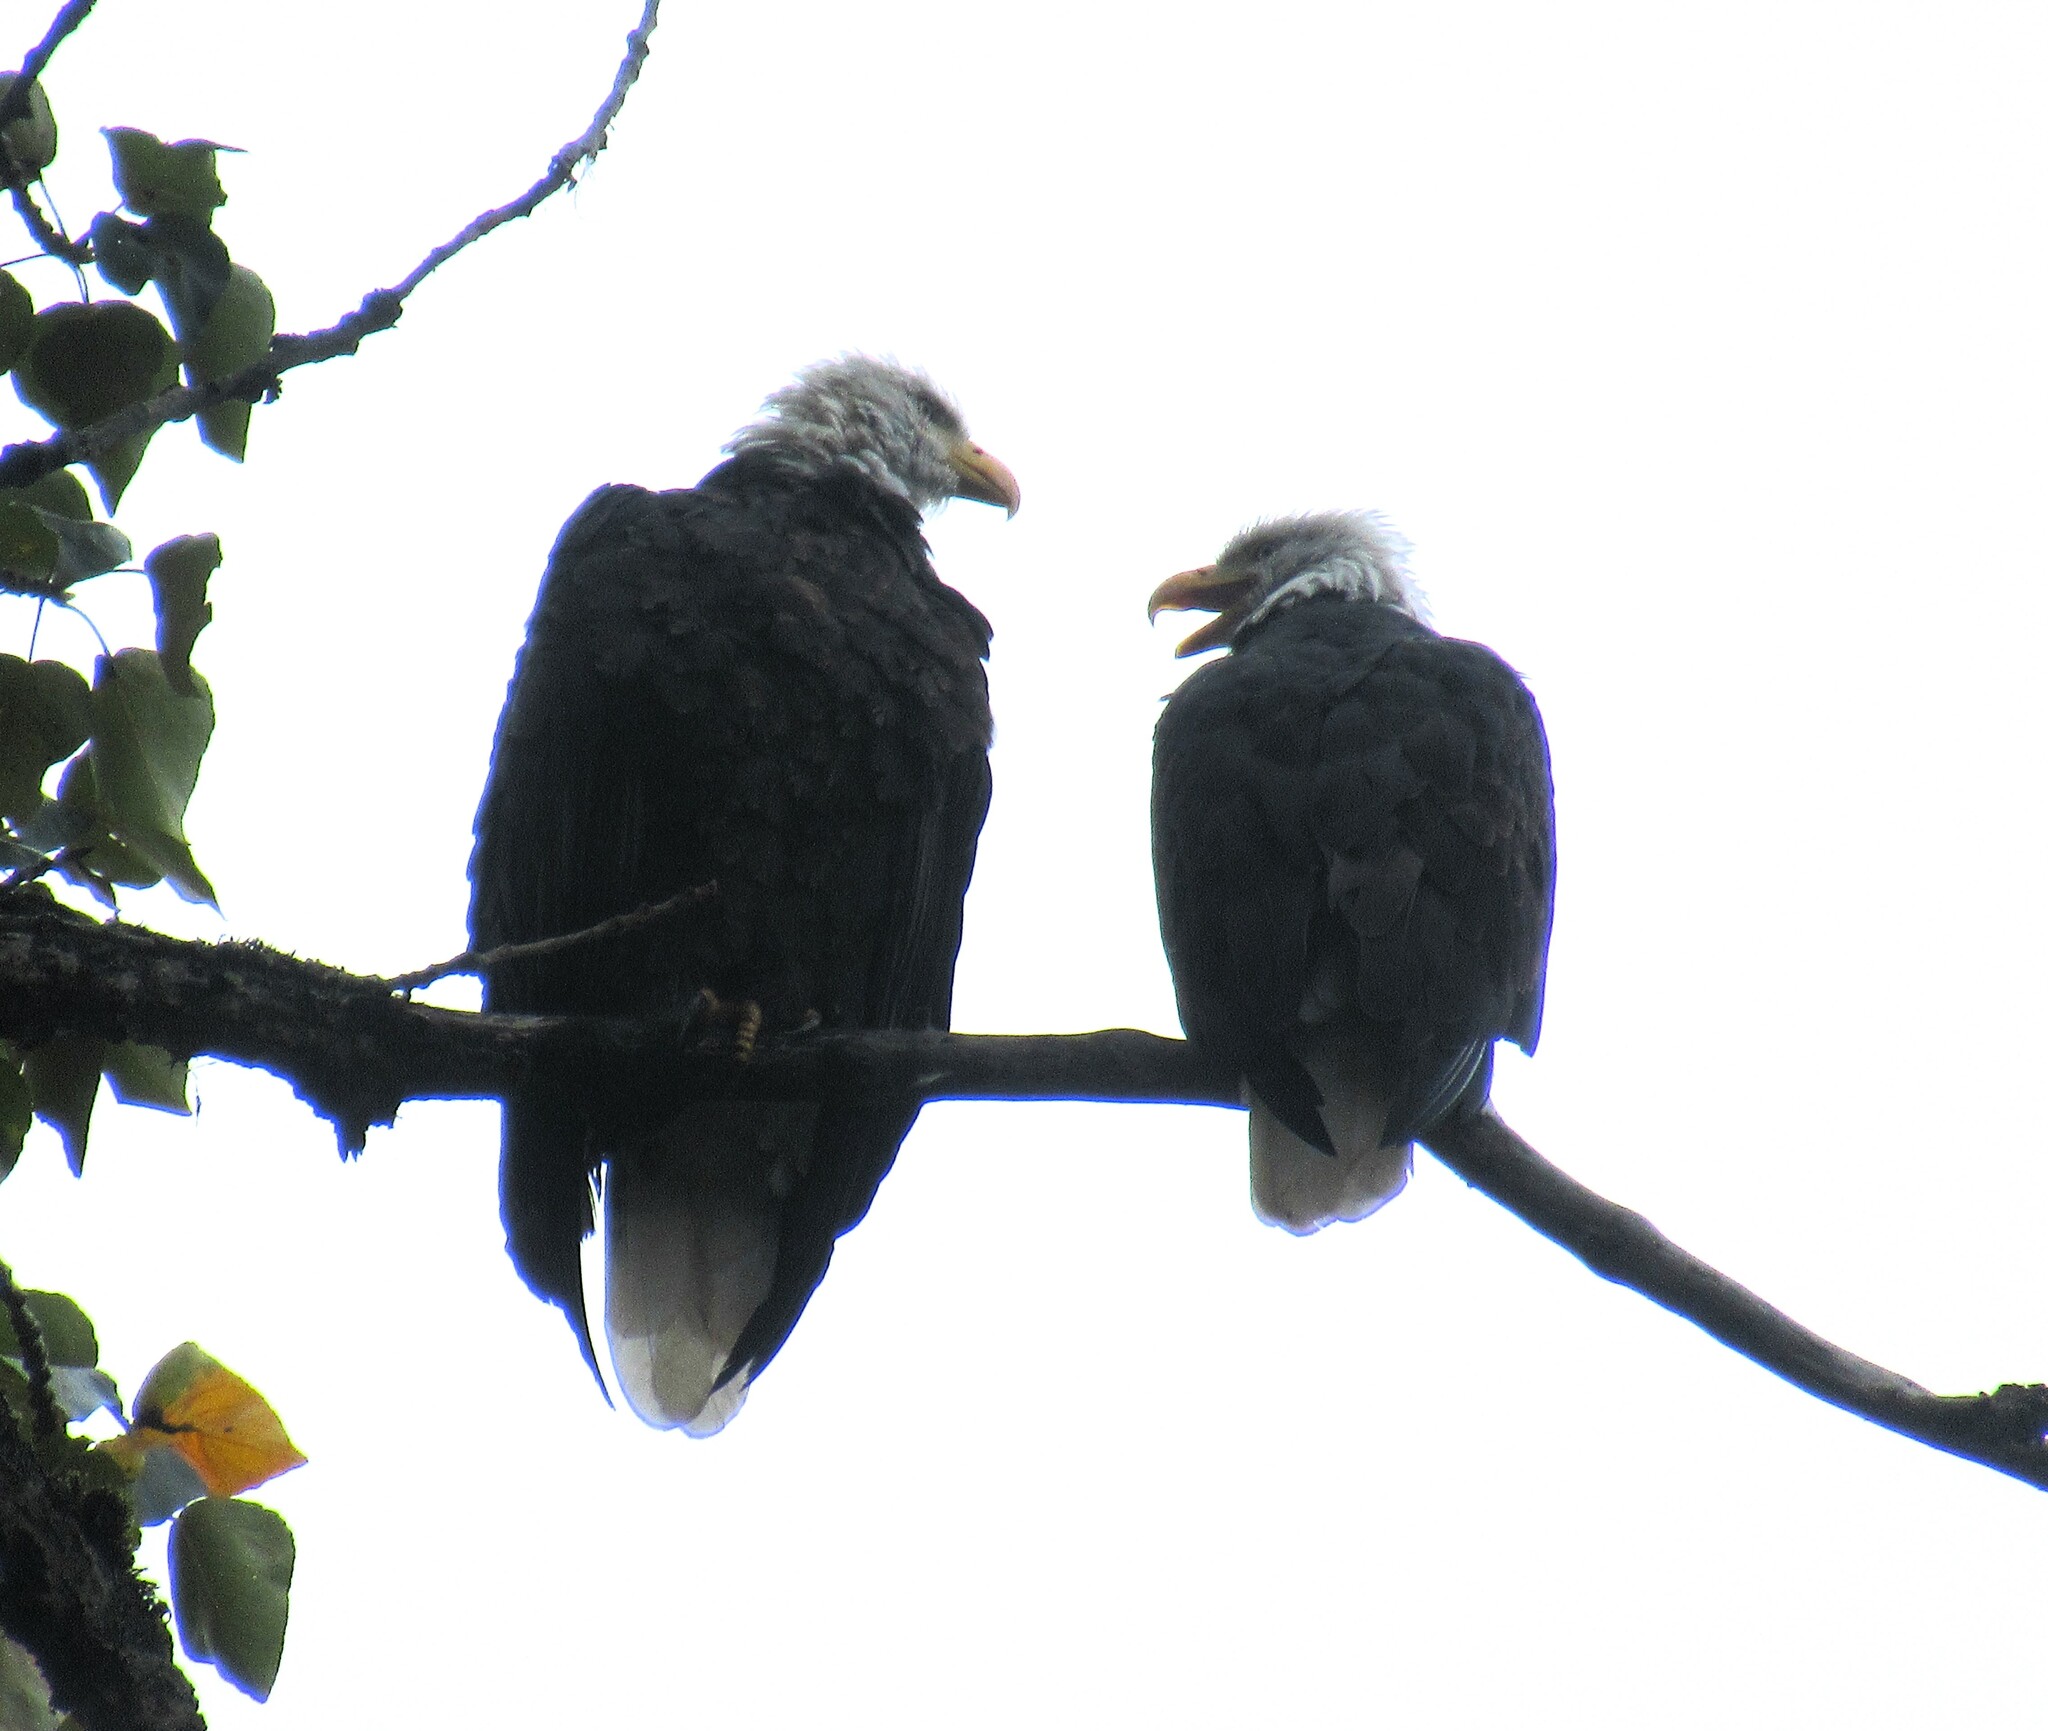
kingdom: Animalia
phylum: Chordata
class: Aves
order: Accipitriformes
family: Accipitridae
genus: Haliaeetus
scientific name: Haliaeetus leucocephalus
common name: Bald eagle
